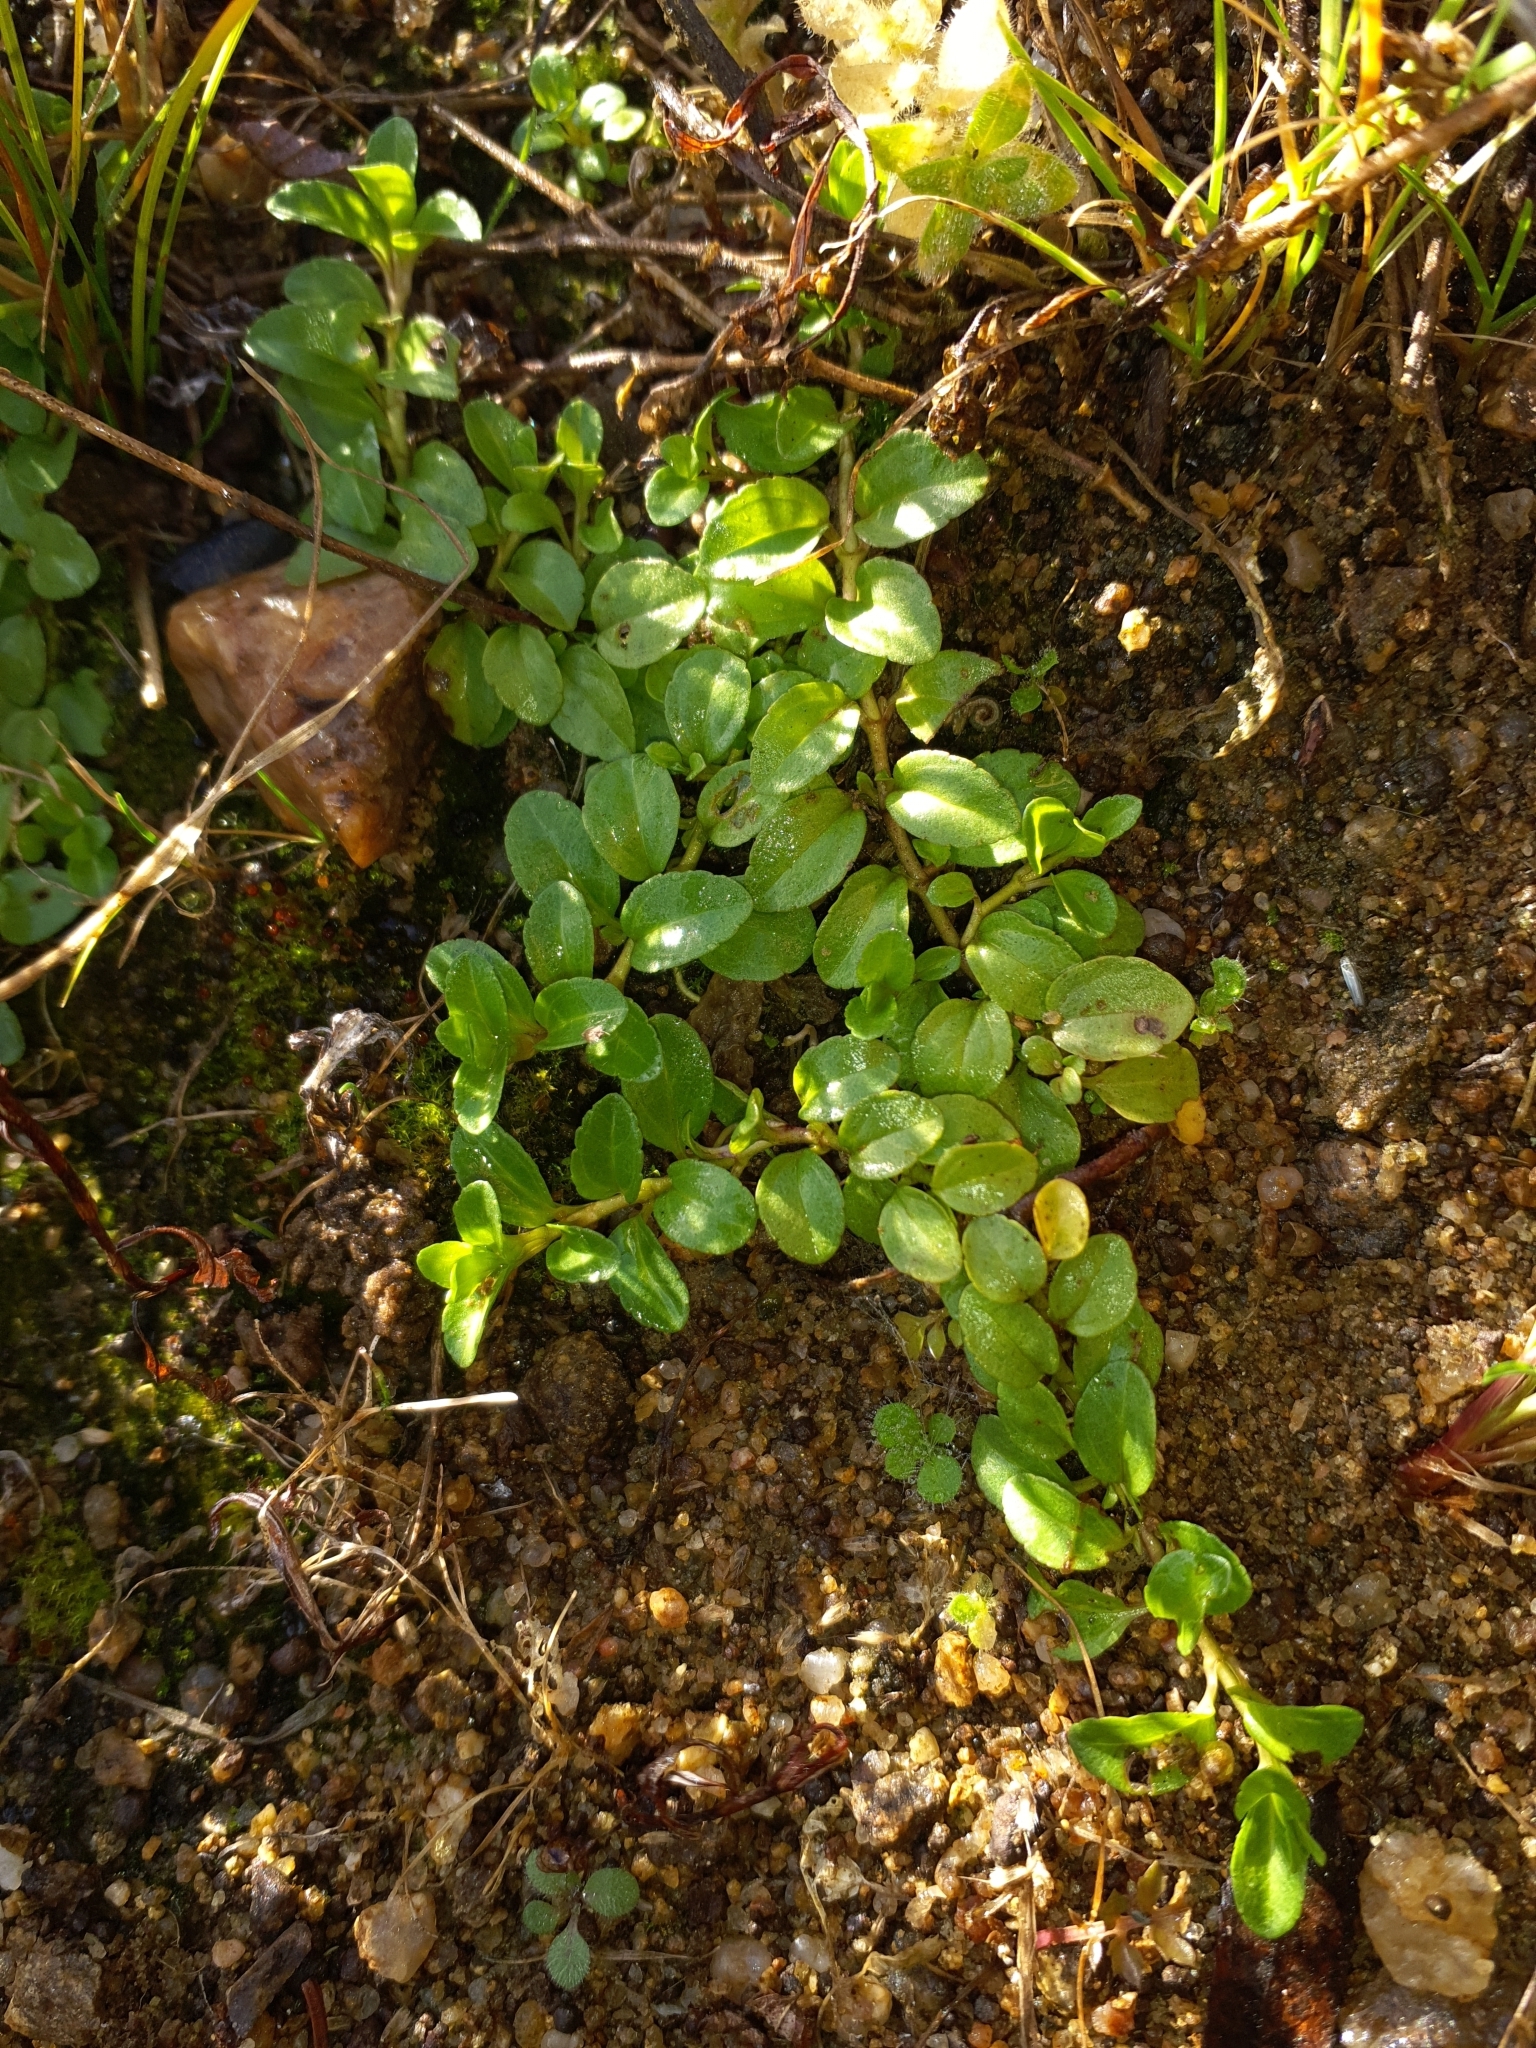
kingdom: Plantae
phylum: Tracheophyta
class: Magnoliopsida
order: Lamiales
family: Plantaginaceae
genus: Veronica
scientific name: Veronica serpyllifolia
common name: Thyme-leaved speedwell
